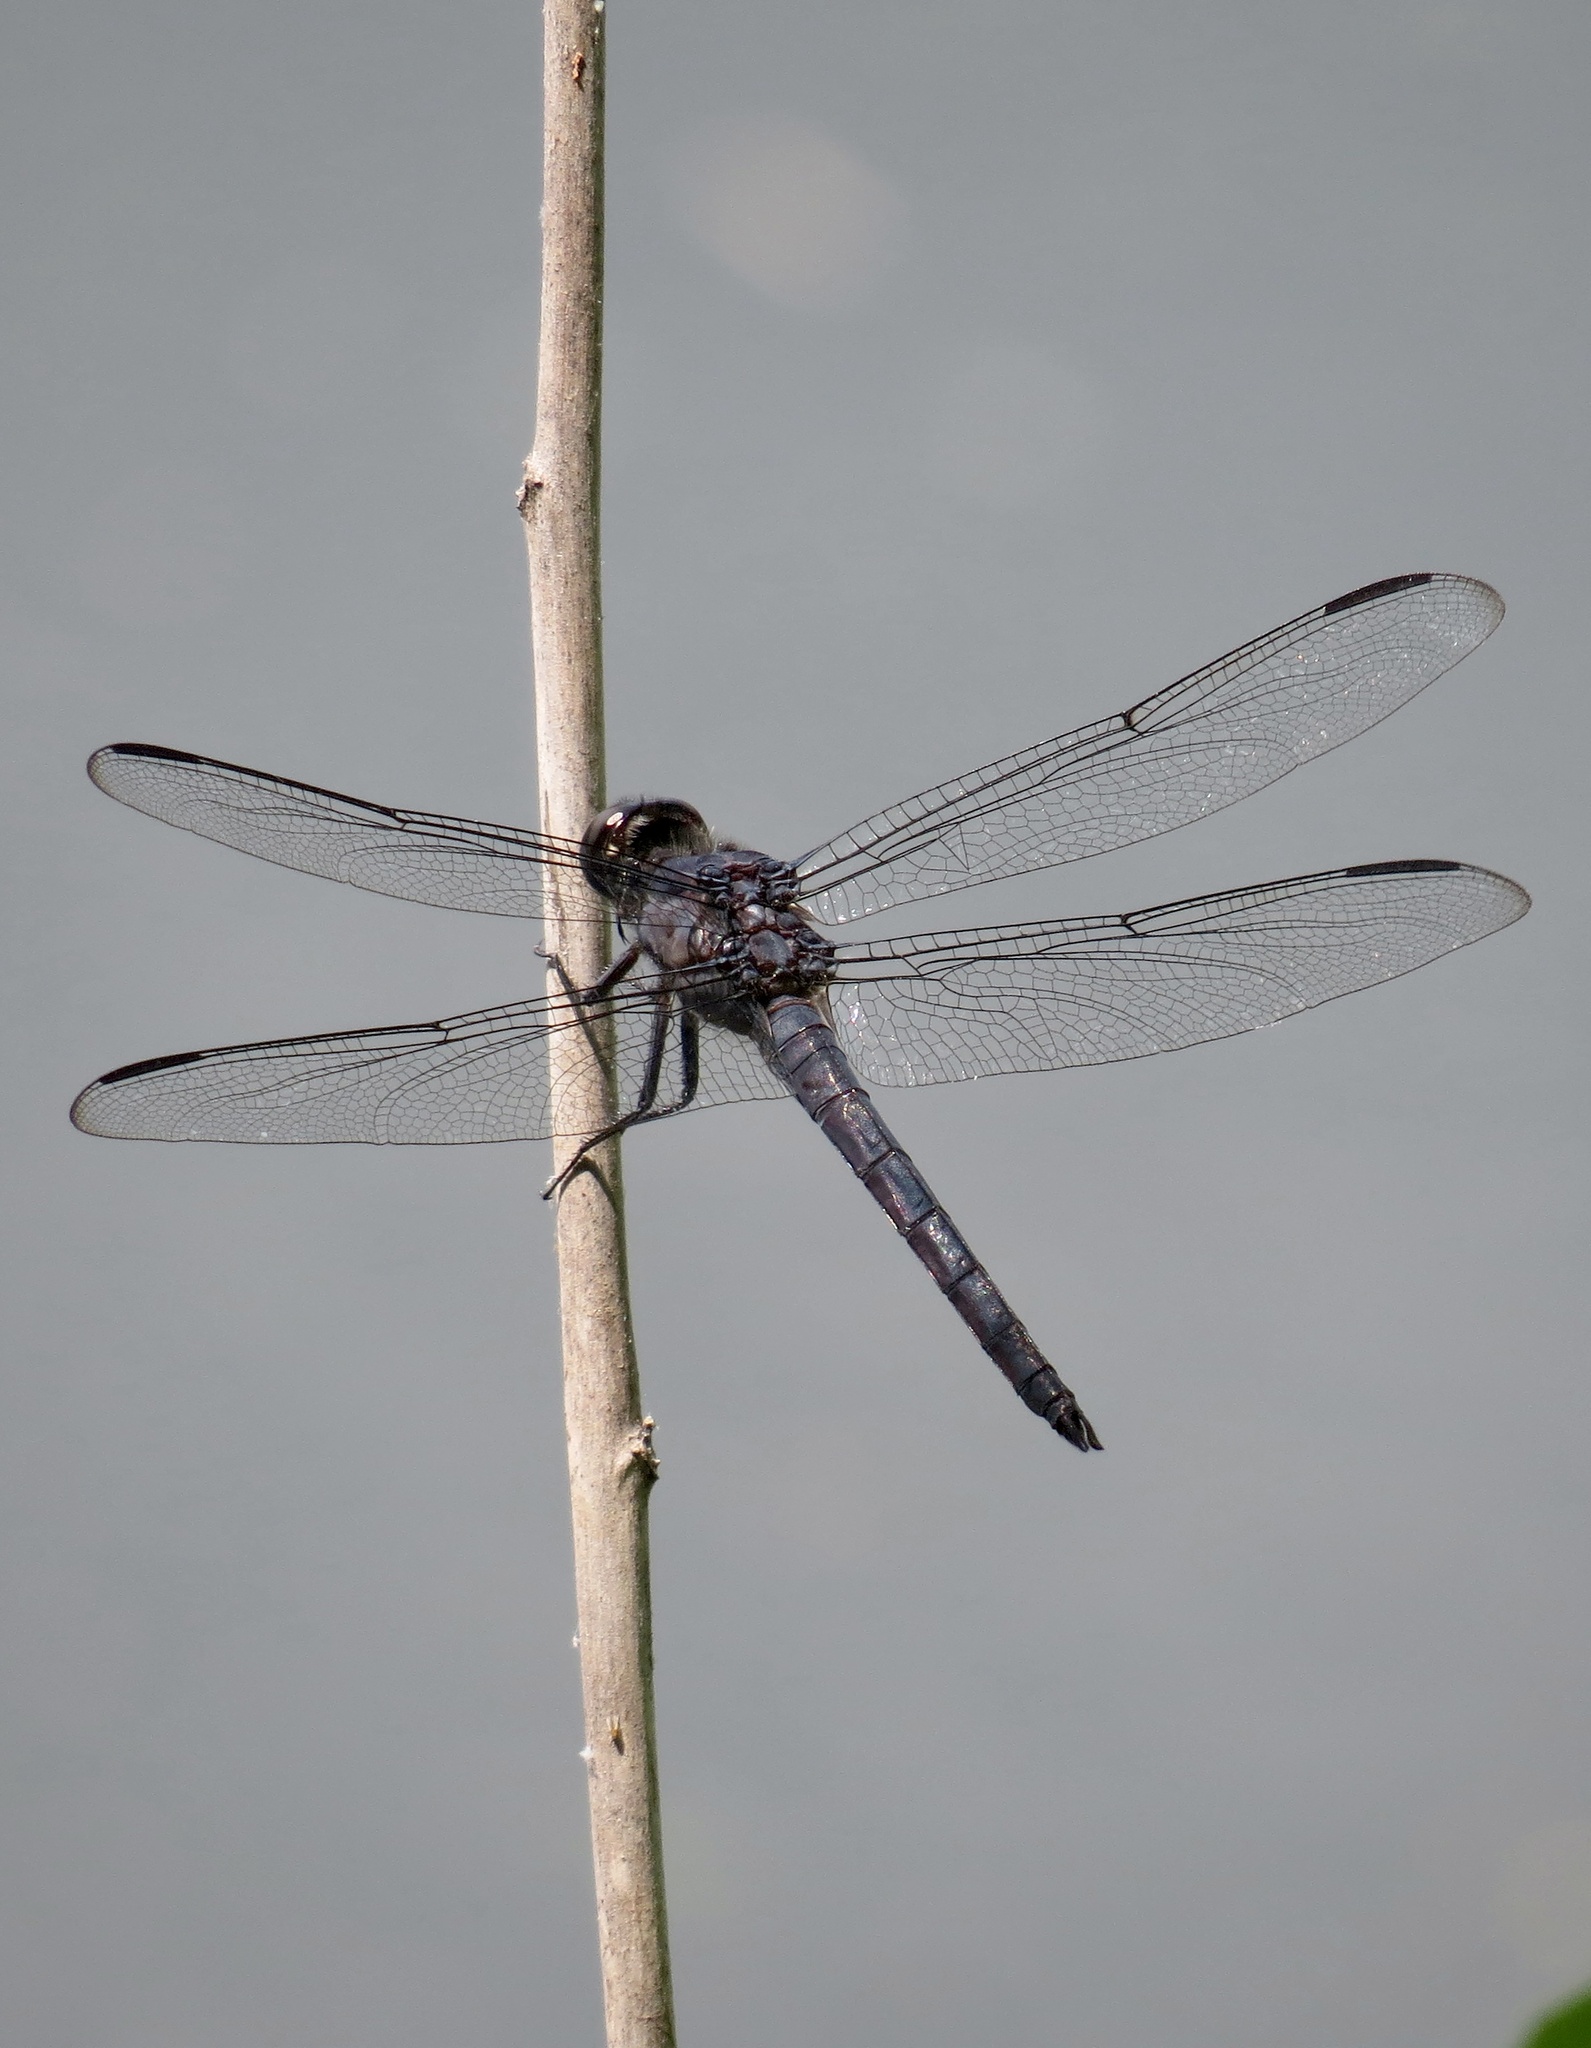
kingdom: Animalia
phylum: Arthropoda
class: Insecta
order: Odonata
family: Libellulidae
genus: Libellula
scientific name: Libellula incesta
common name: Slaty skimmer
